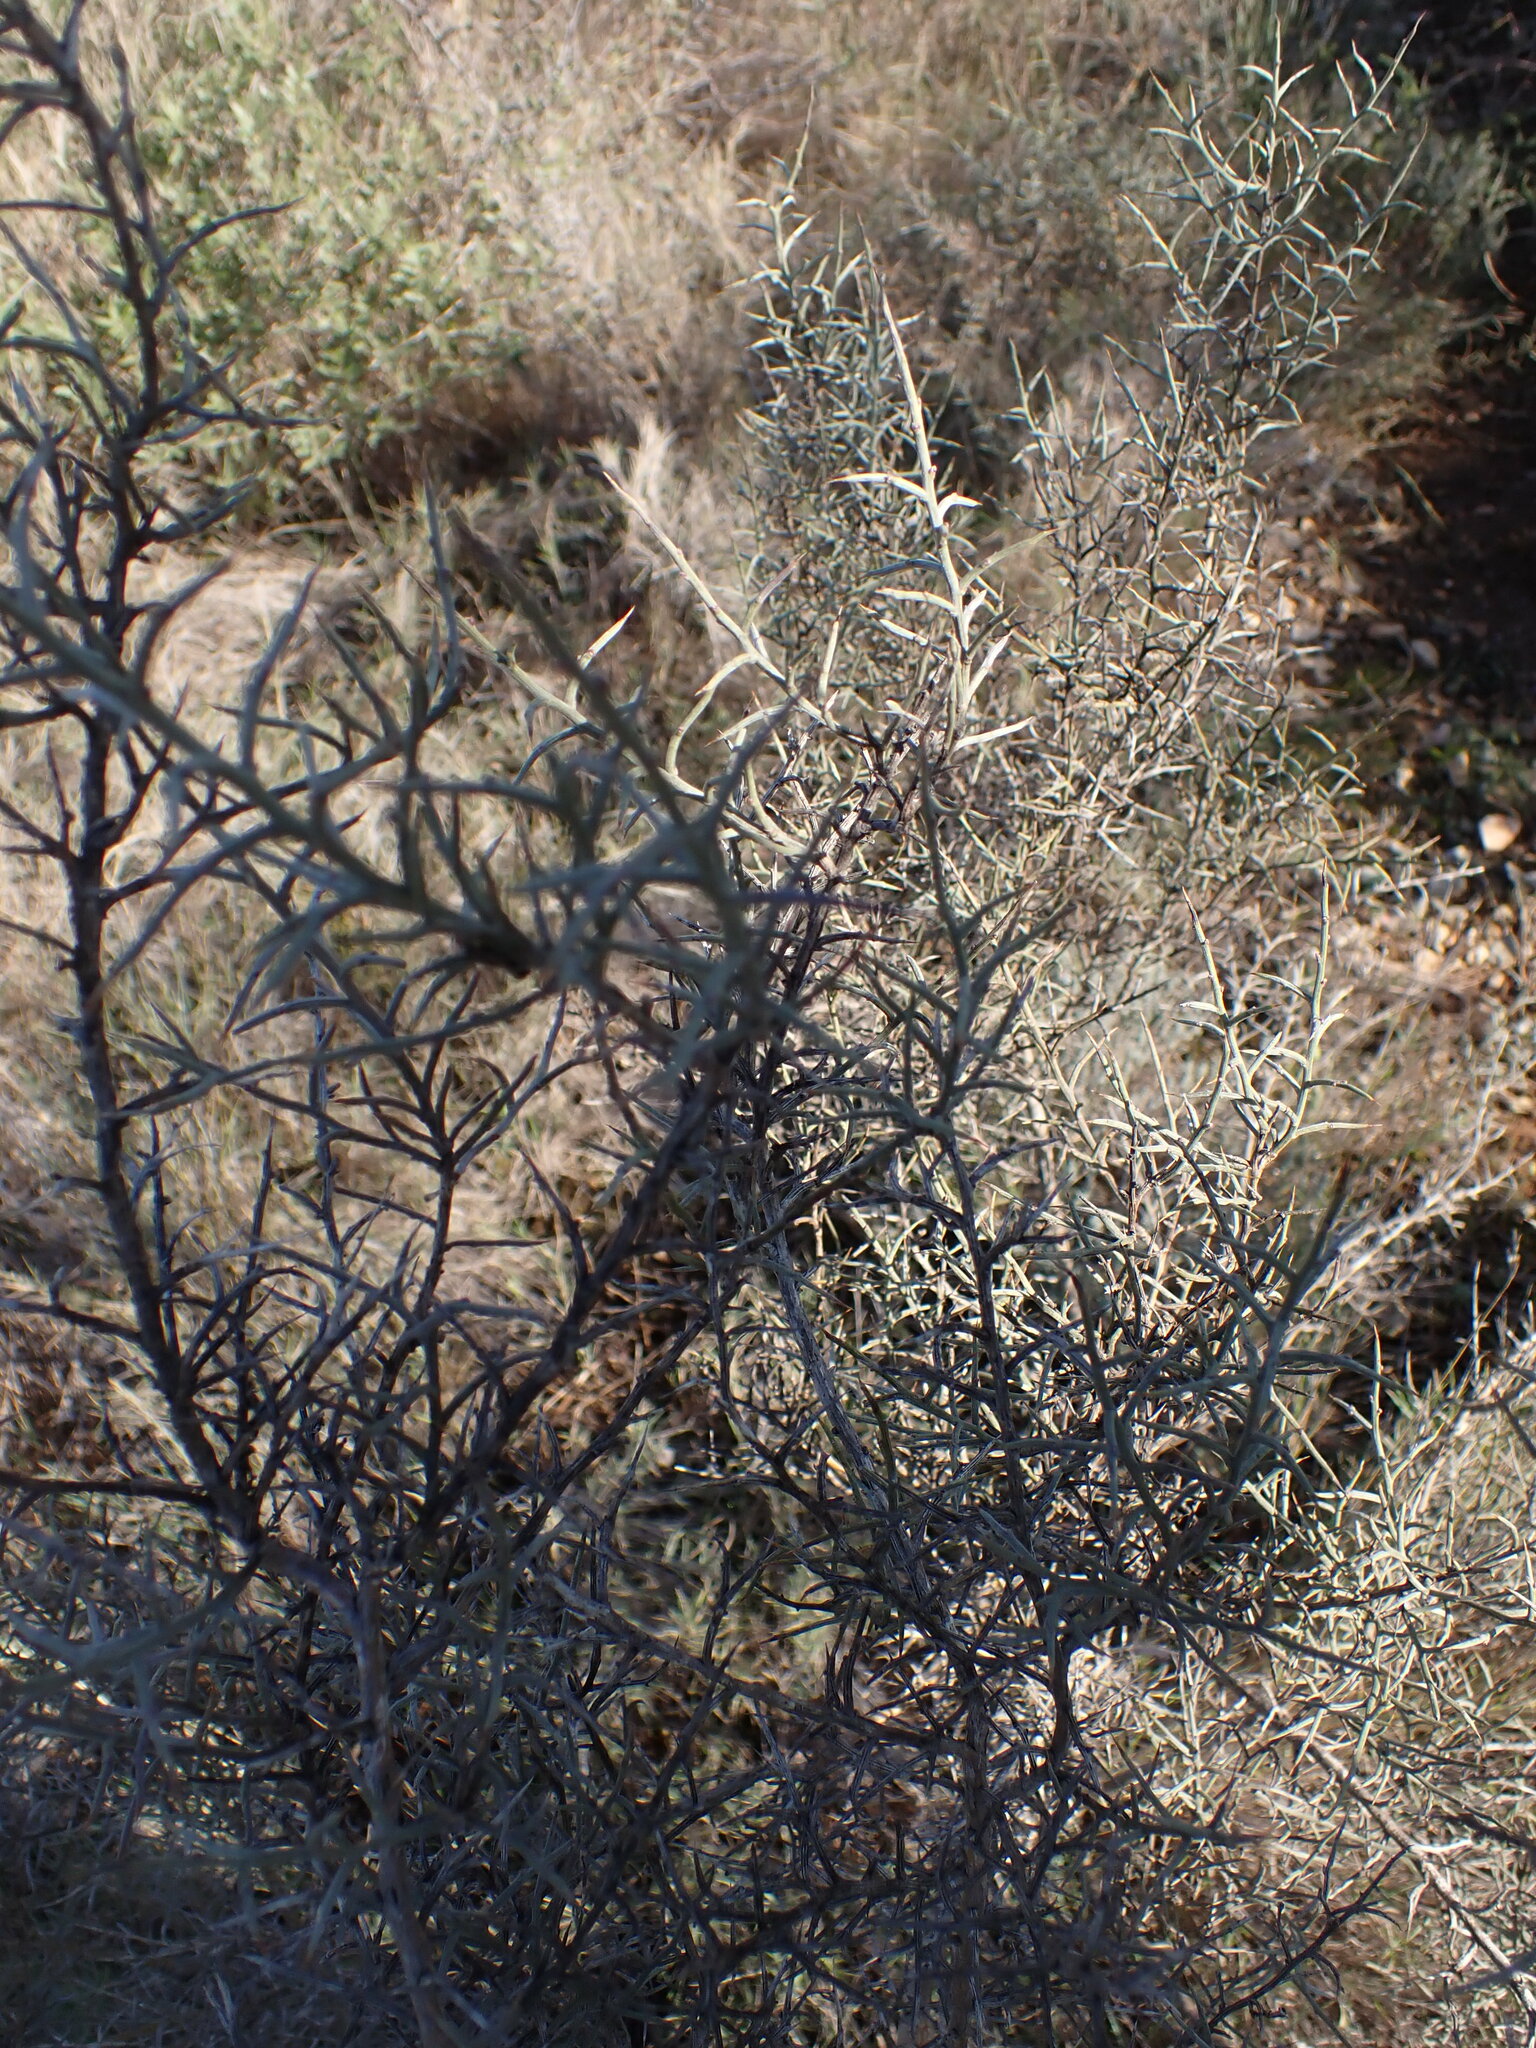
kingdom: Plantae
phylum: Tracheophyta
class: Magnoliopsida
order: Fabales
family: Fabaceae
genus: Genista
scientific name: Genista scorpius
